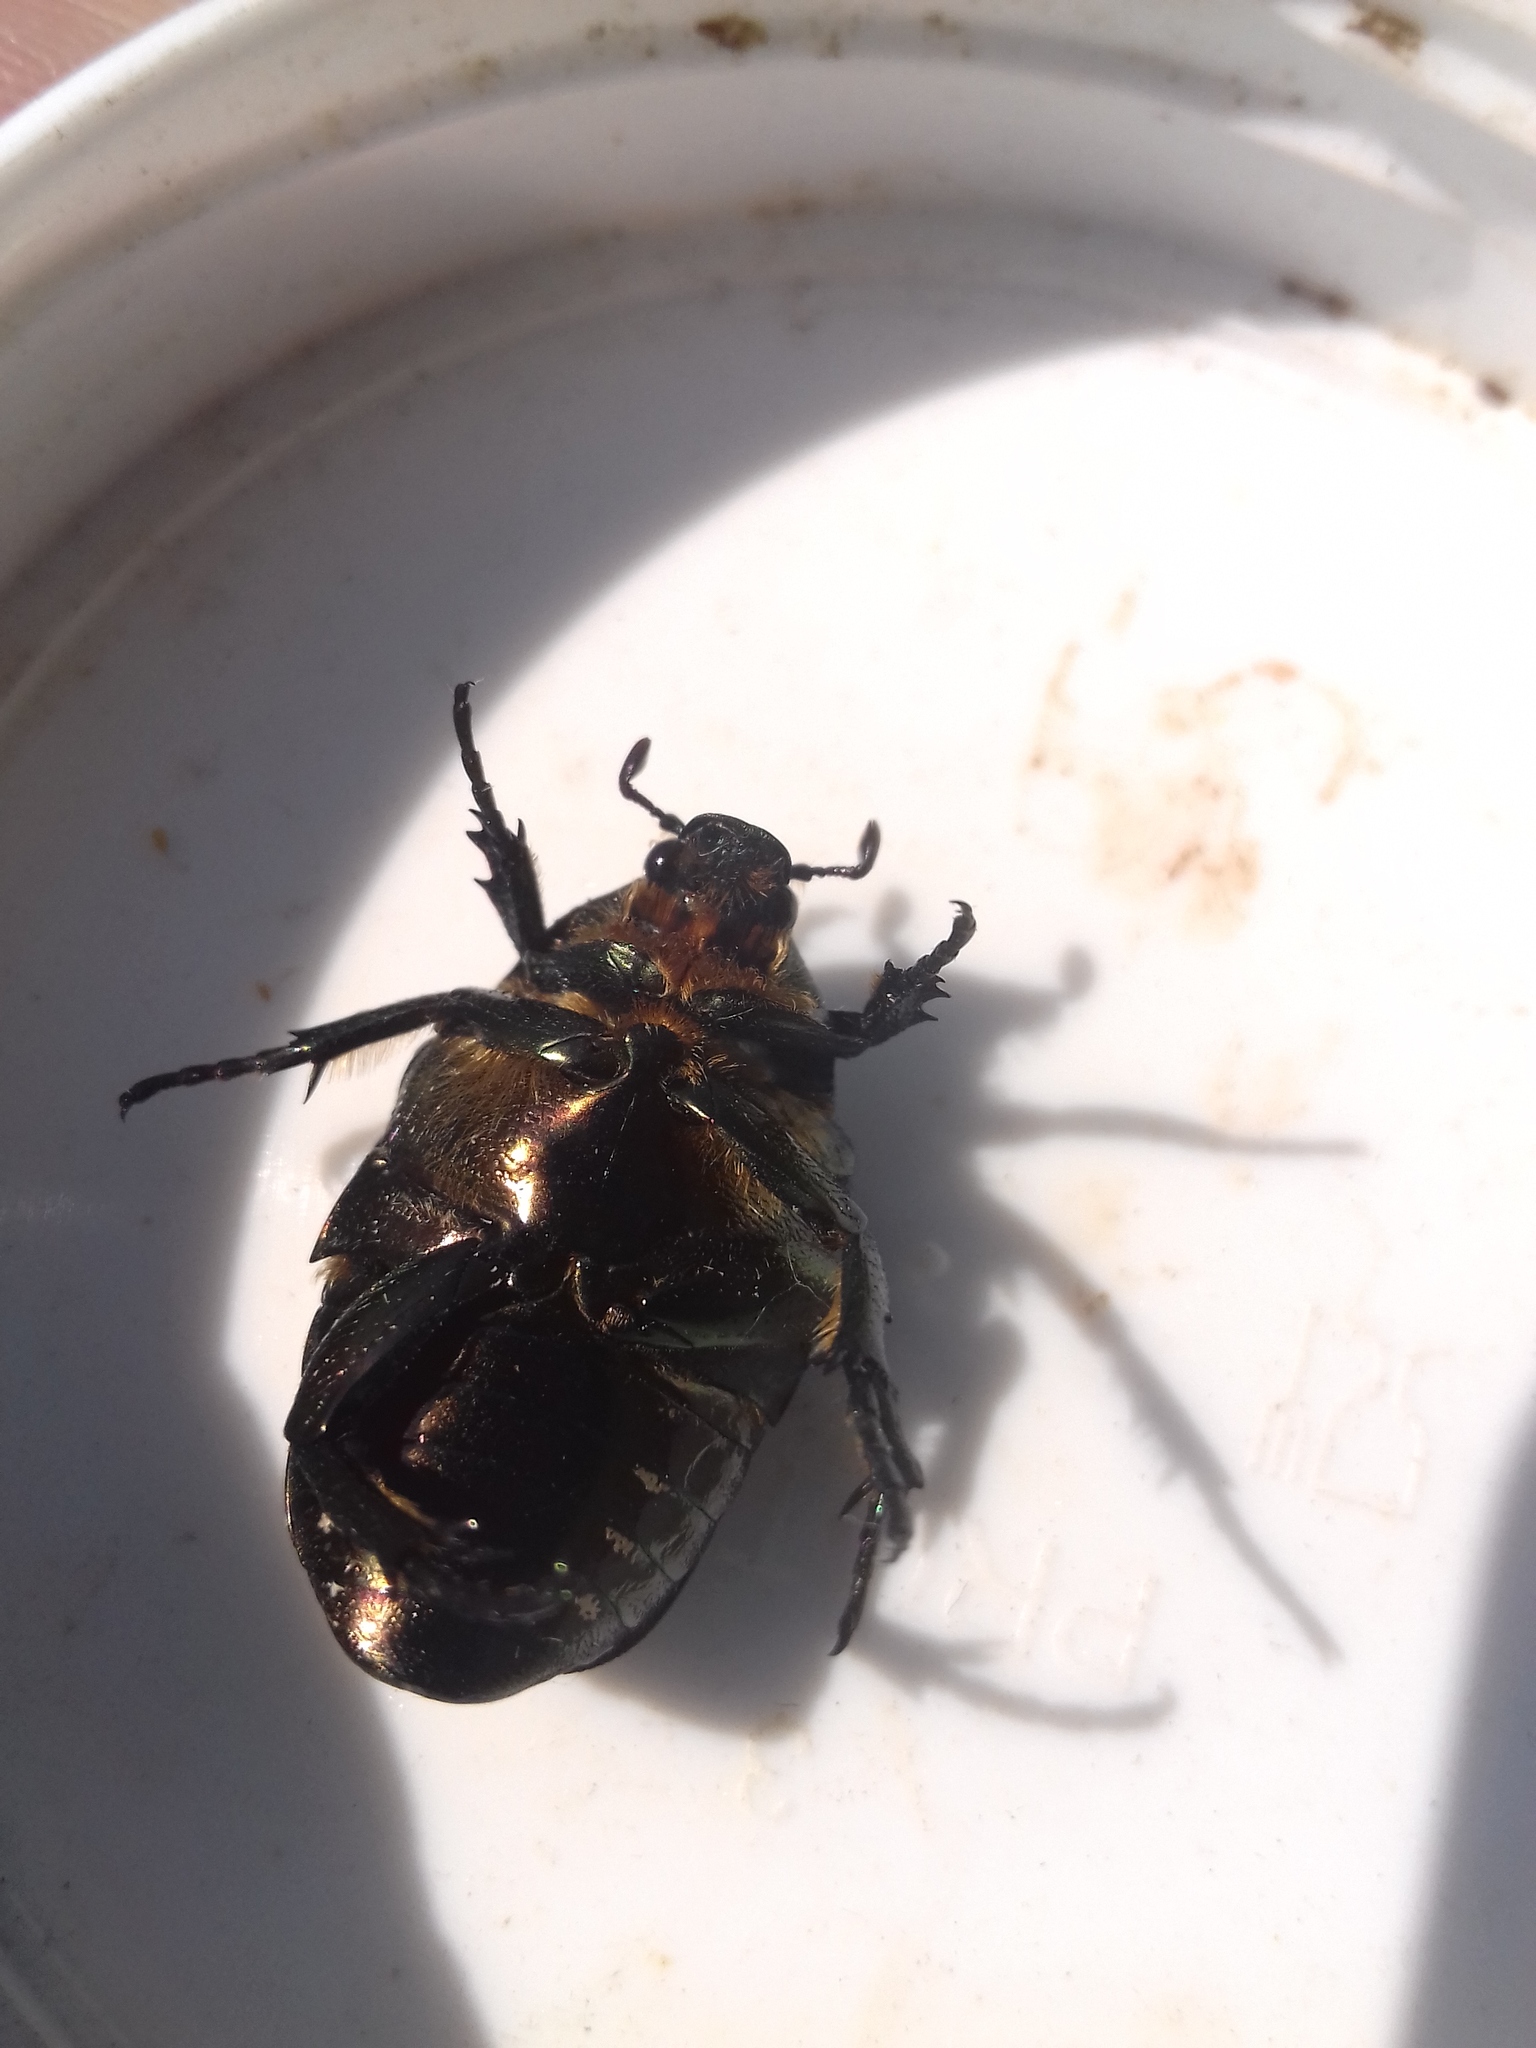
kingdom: Animalia
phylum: Arthropoda
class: Insecta
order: Coleoptera
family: Scarabaeidae
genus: Protaetia
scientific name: Protaetia marmorata
